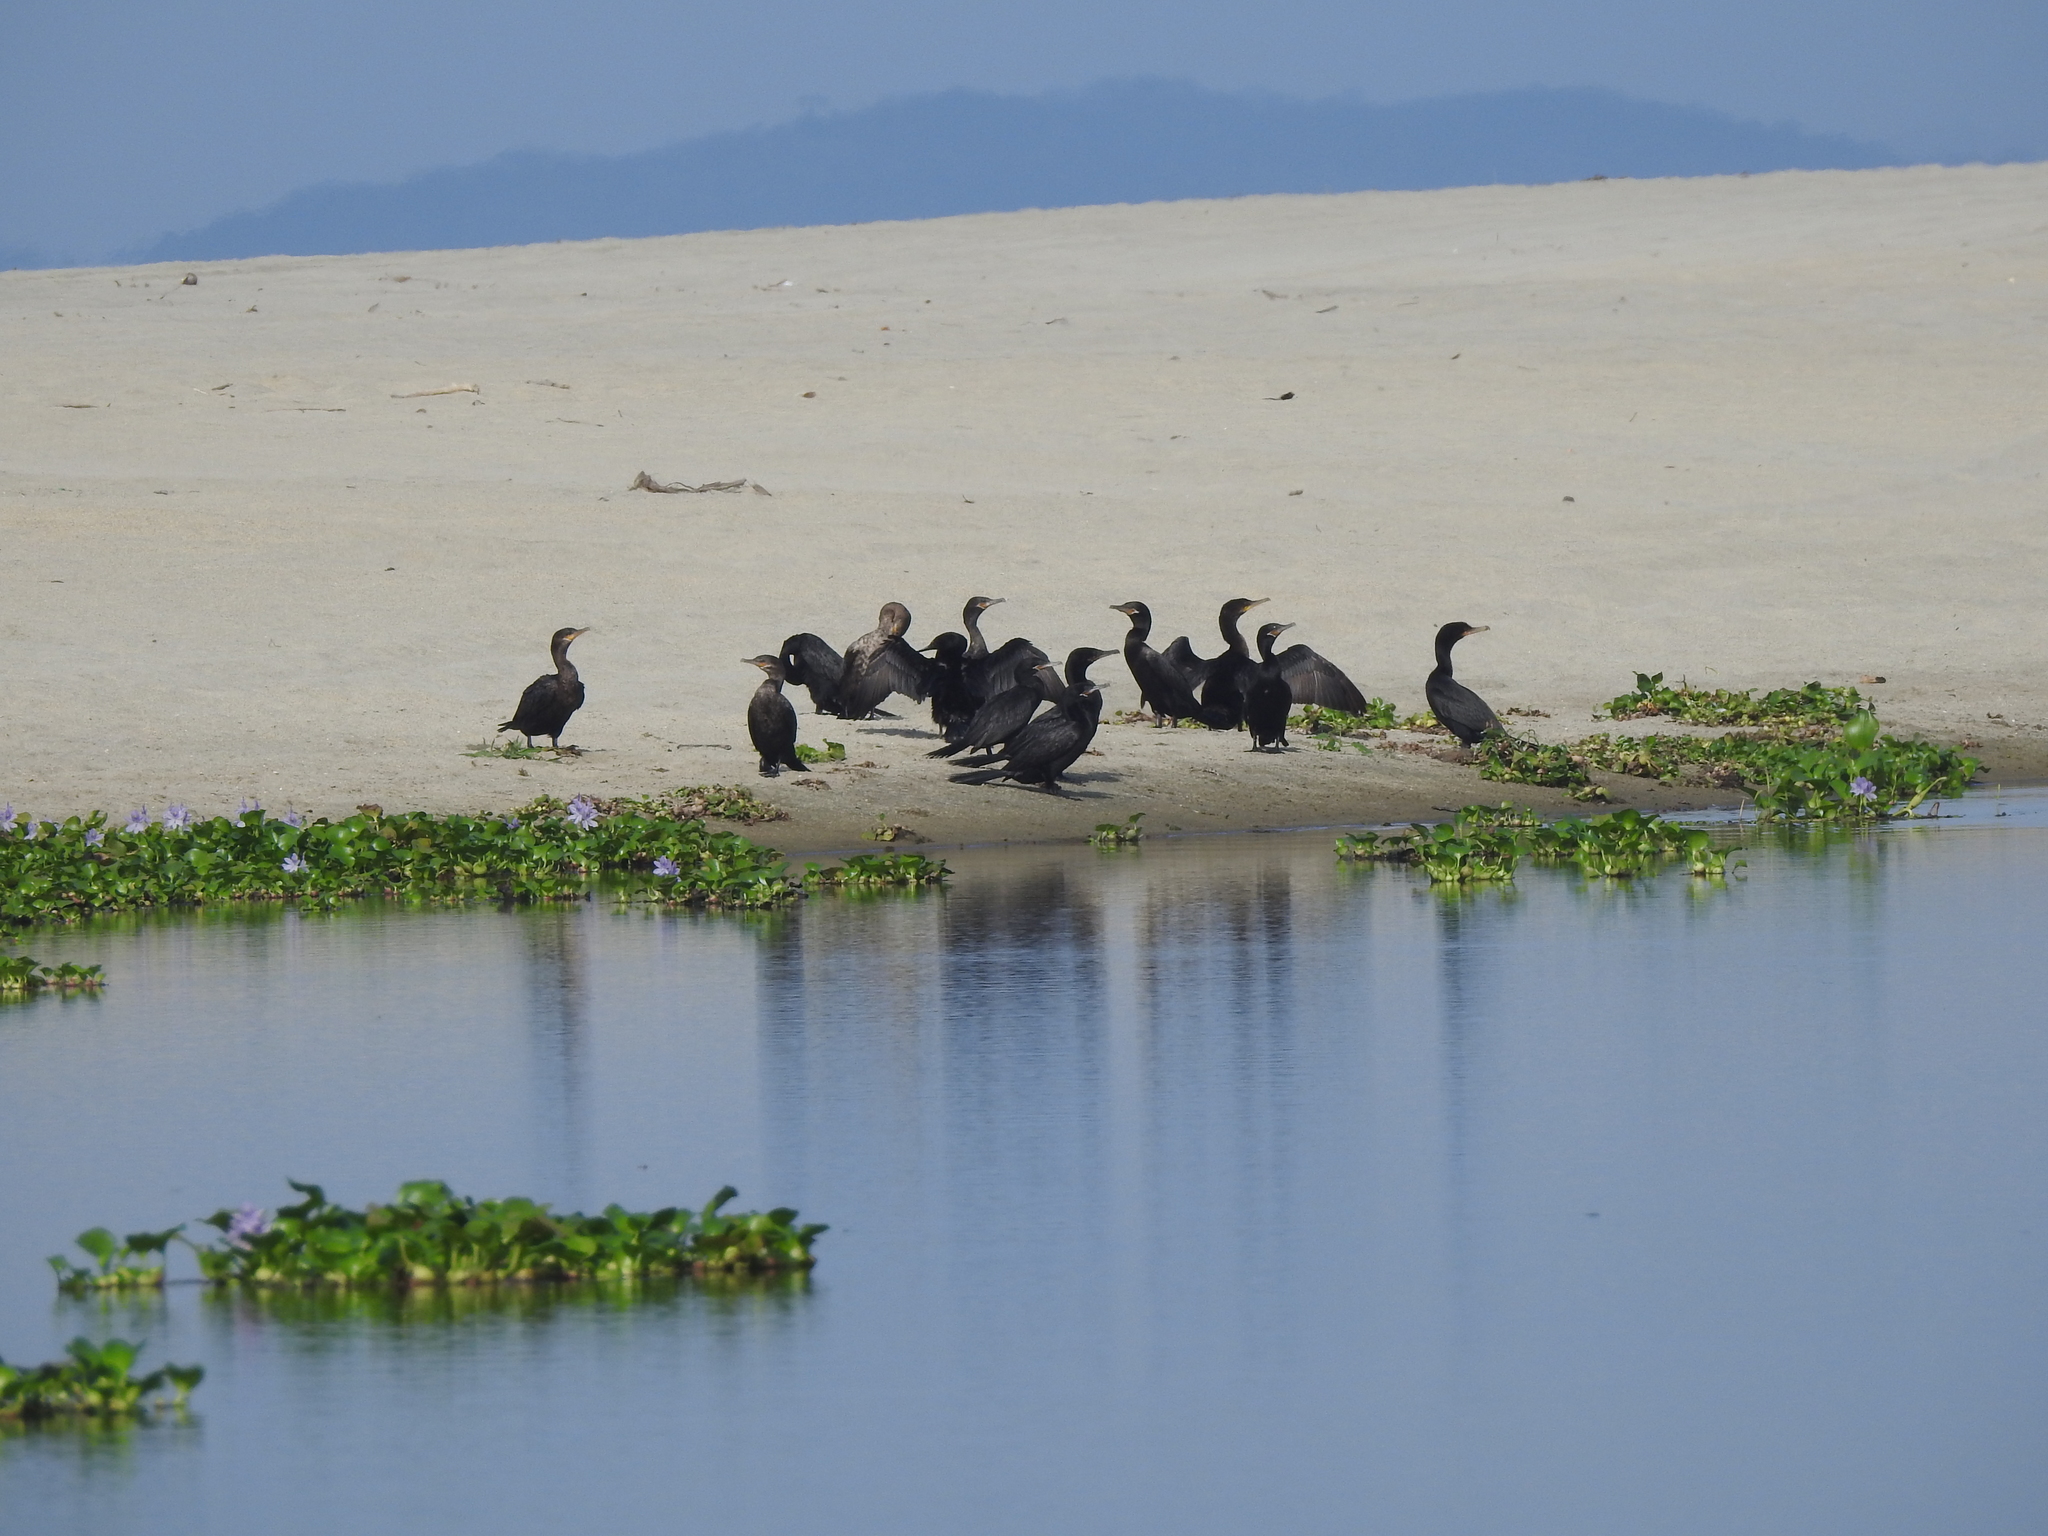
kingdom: Animalia
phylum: Chordata
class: Aves
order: Suliformes
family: Phalacrocoracidae
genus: Phalacrocorax
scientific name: Phalacrocorax brasilianus
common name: Neotropic cormorant
